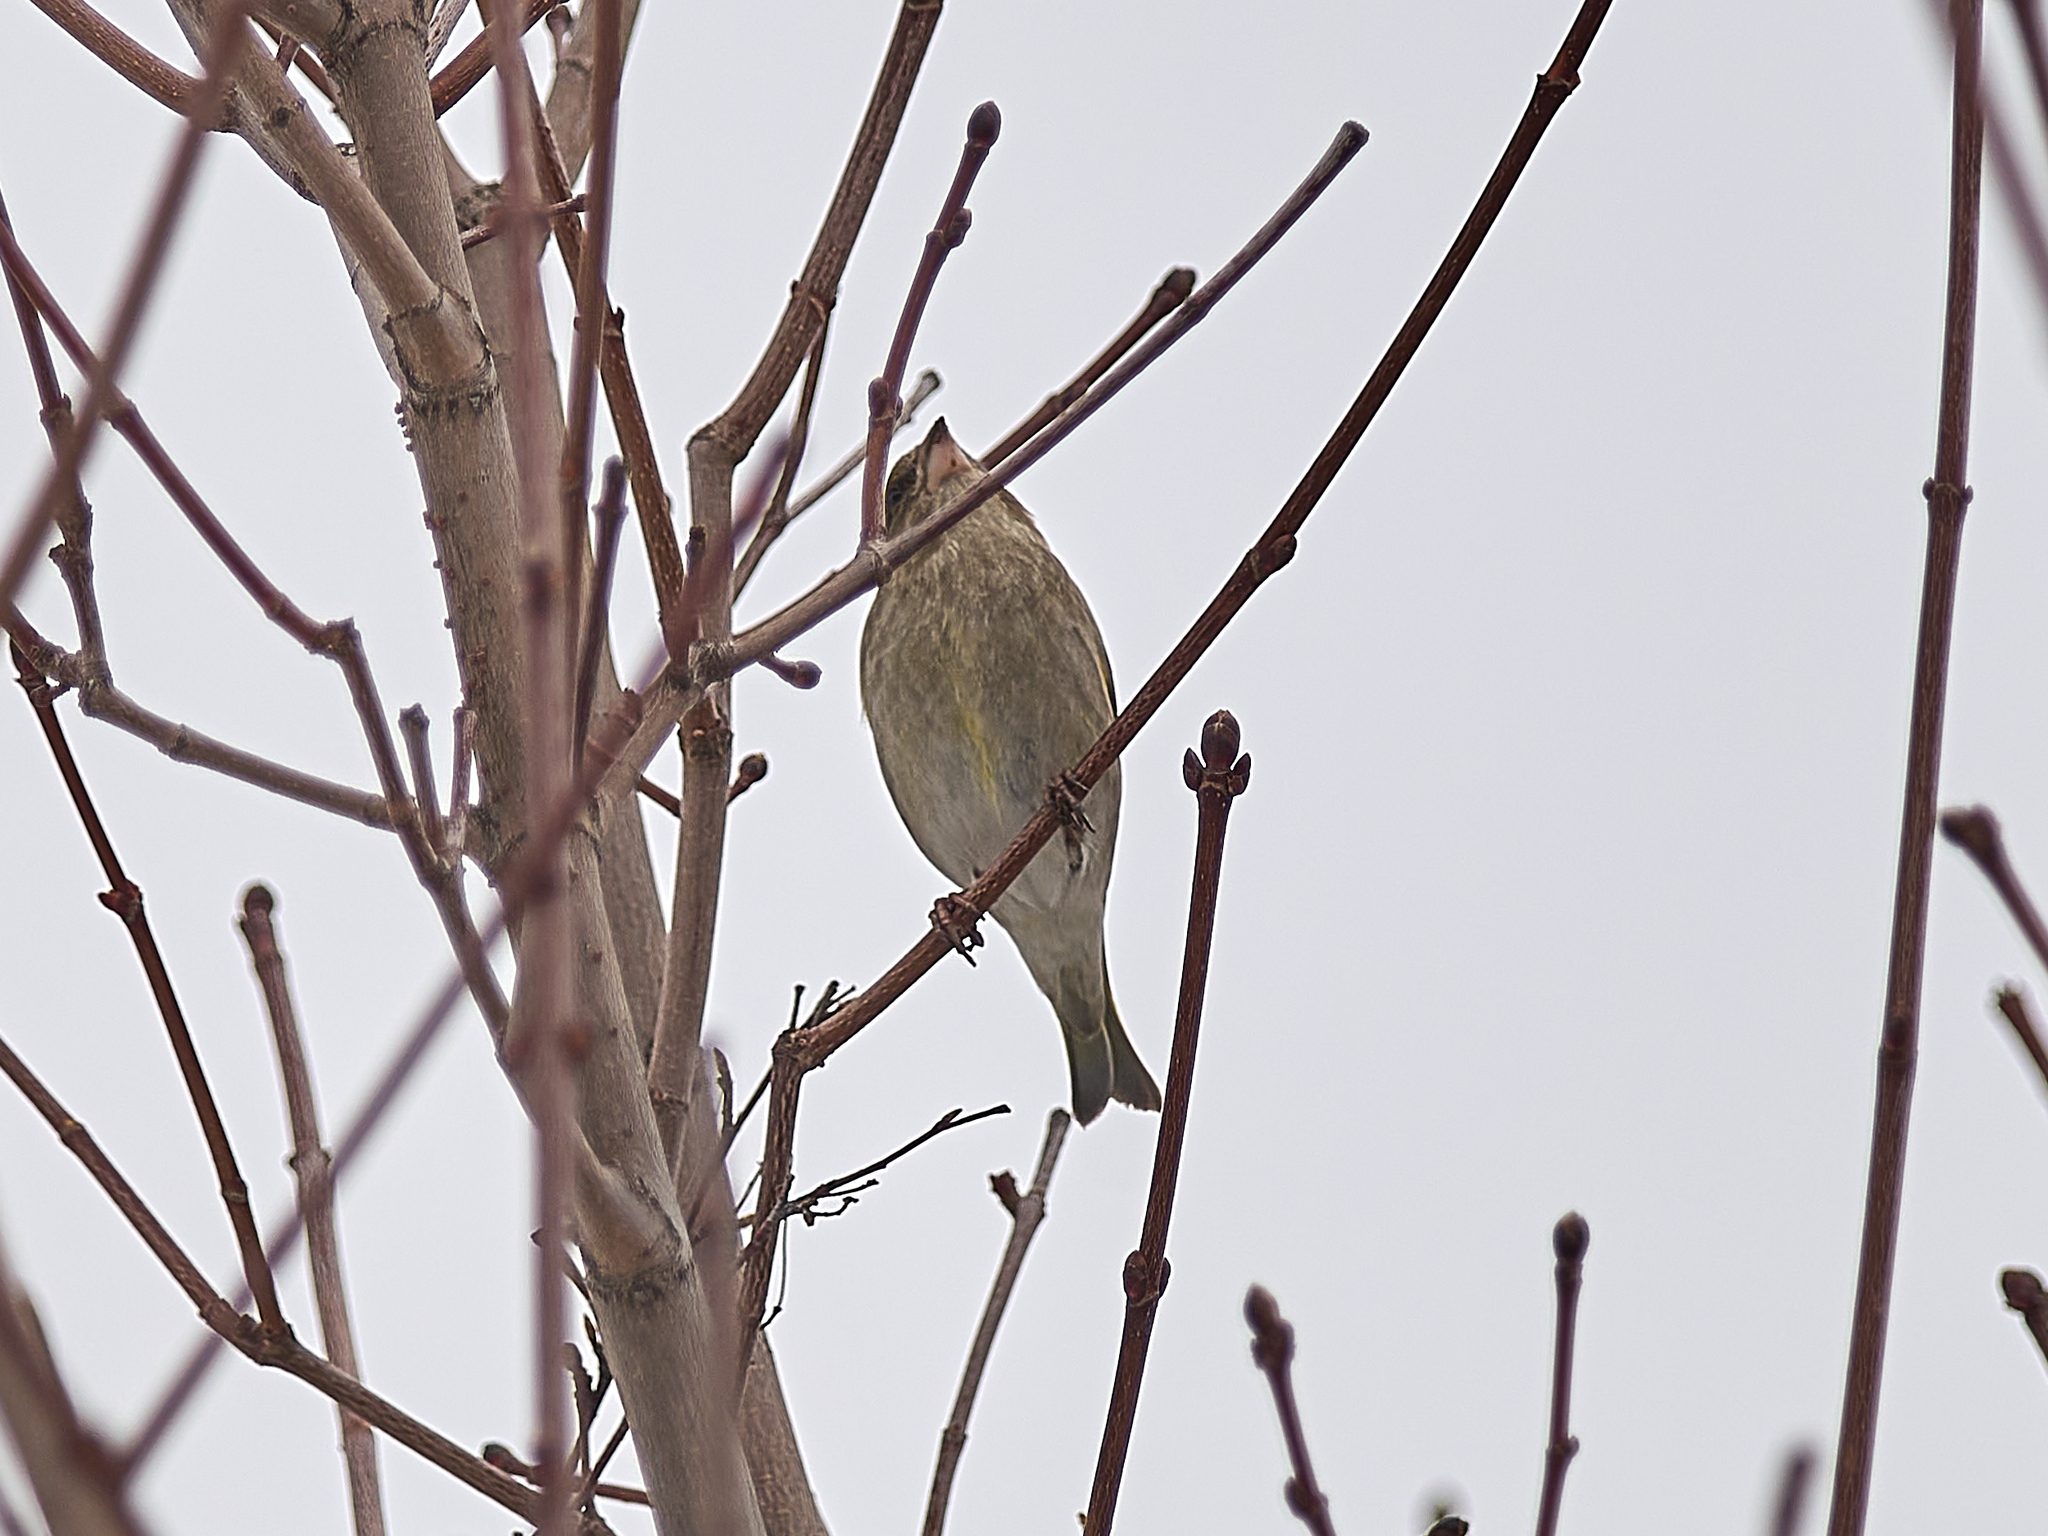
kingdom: Plantae
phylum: Tracheophyta
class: Liliopsida
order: Poales
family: Poaceae
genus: Chloris
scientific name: Chloris chloris
